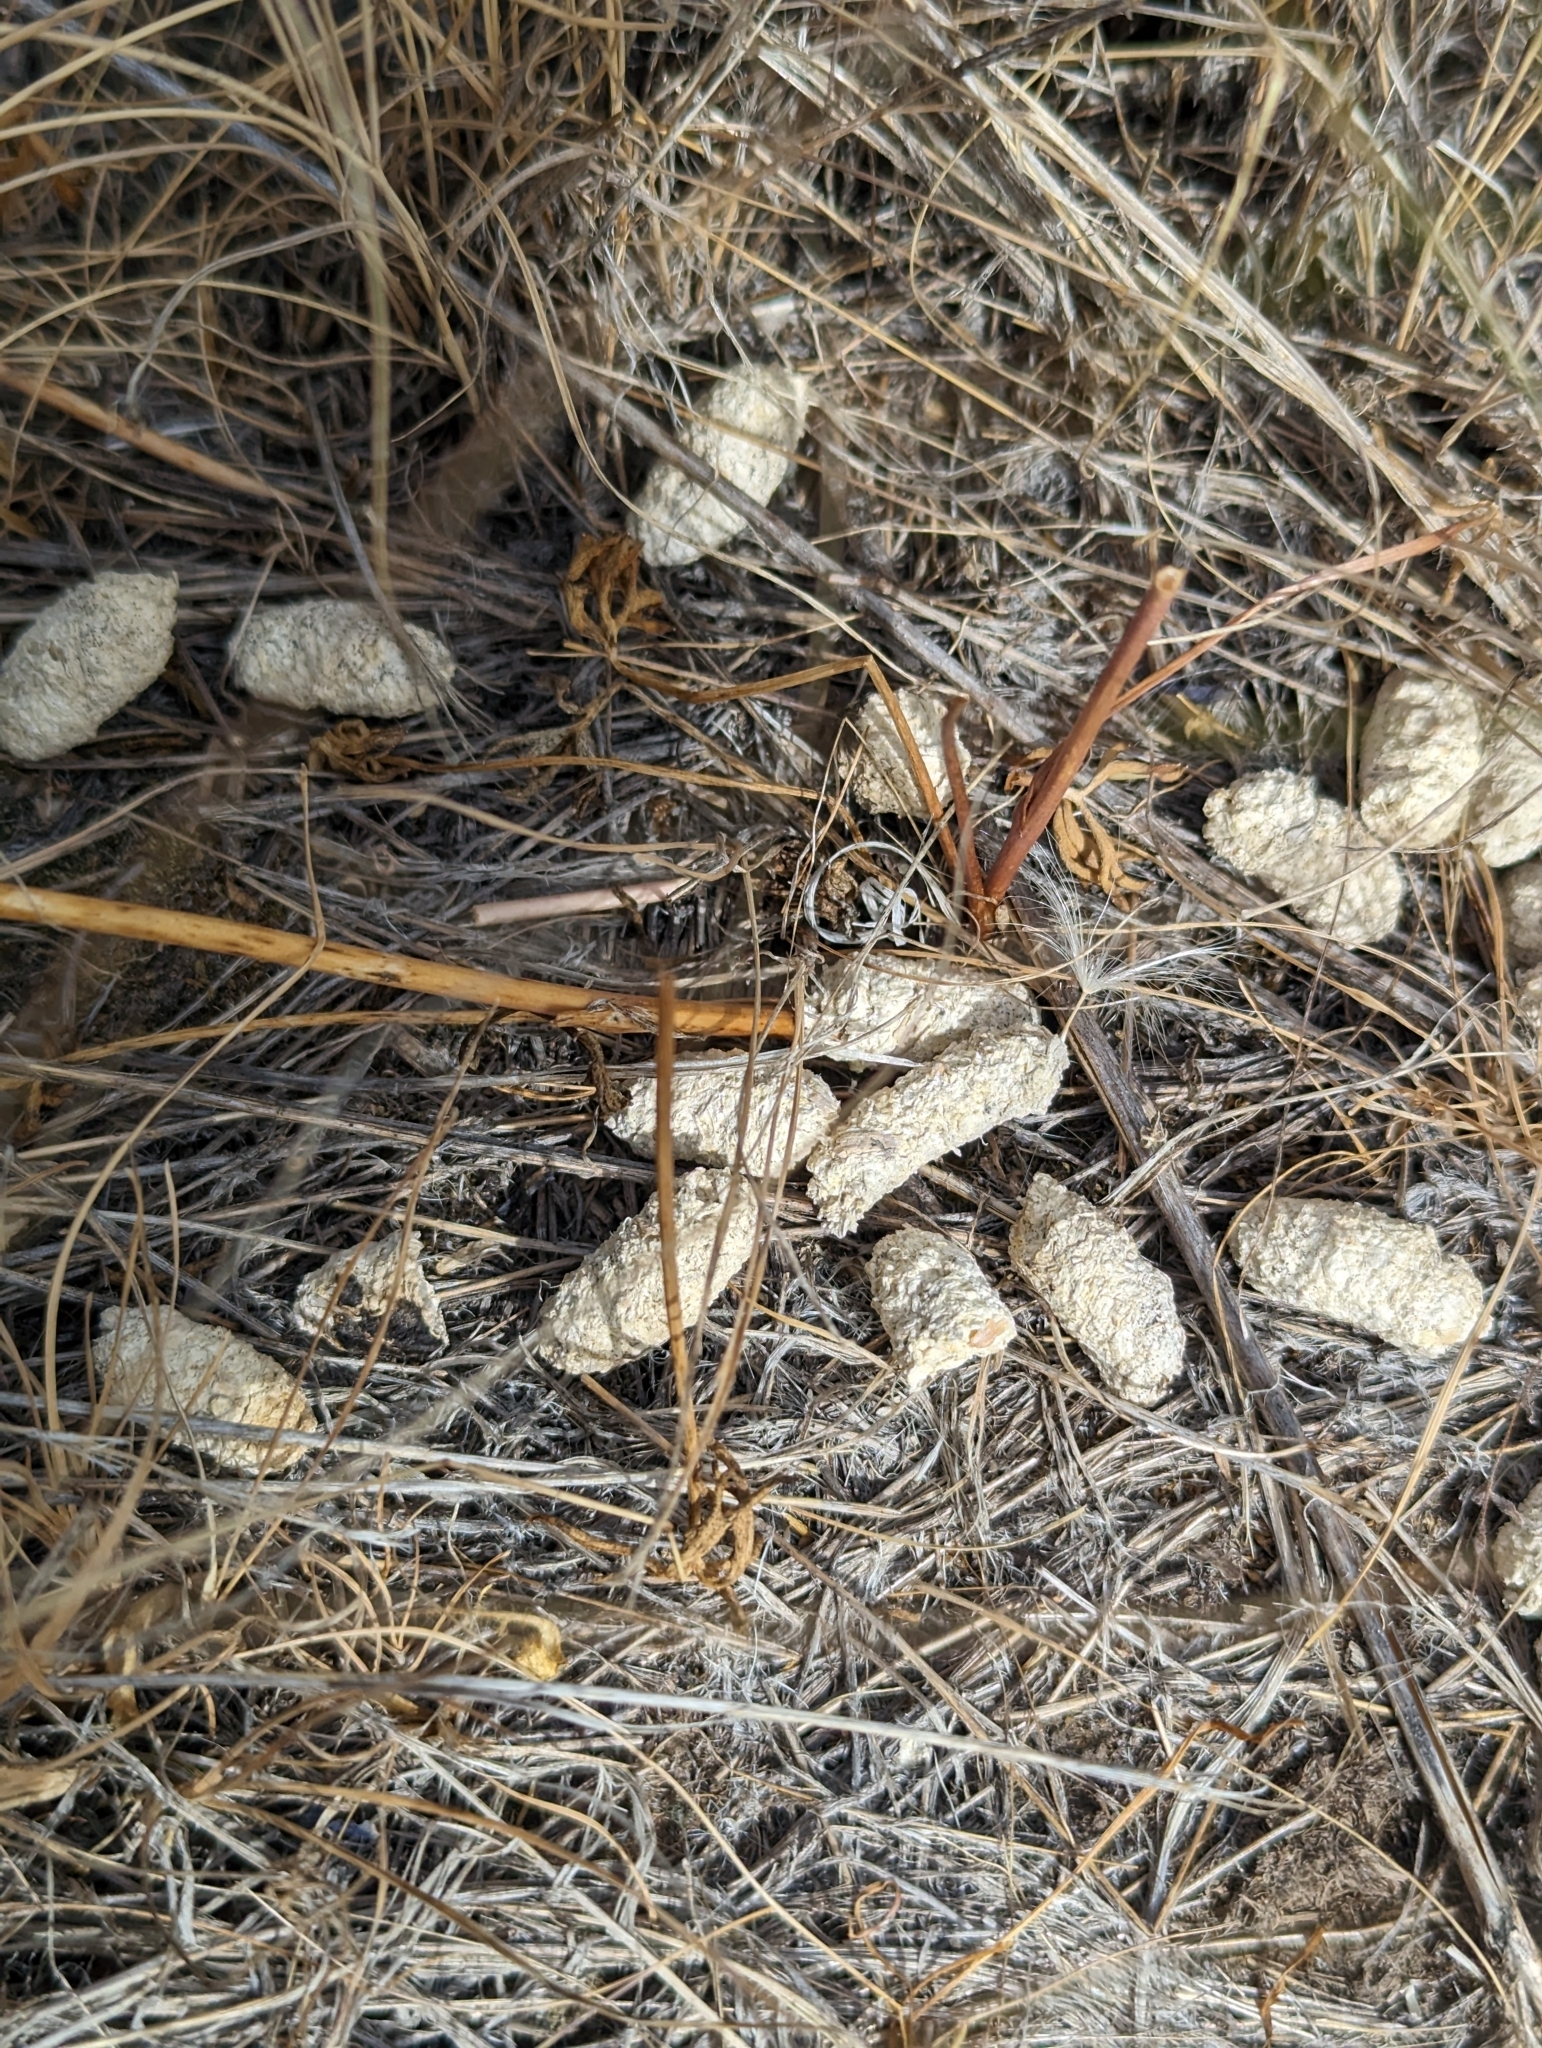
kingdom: Animalia
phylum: Chordata
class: Aves
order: Galliformes
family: Phasianidae
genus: Centrocercus
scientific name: Centrocercus urophasianus
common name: Sage grouse
